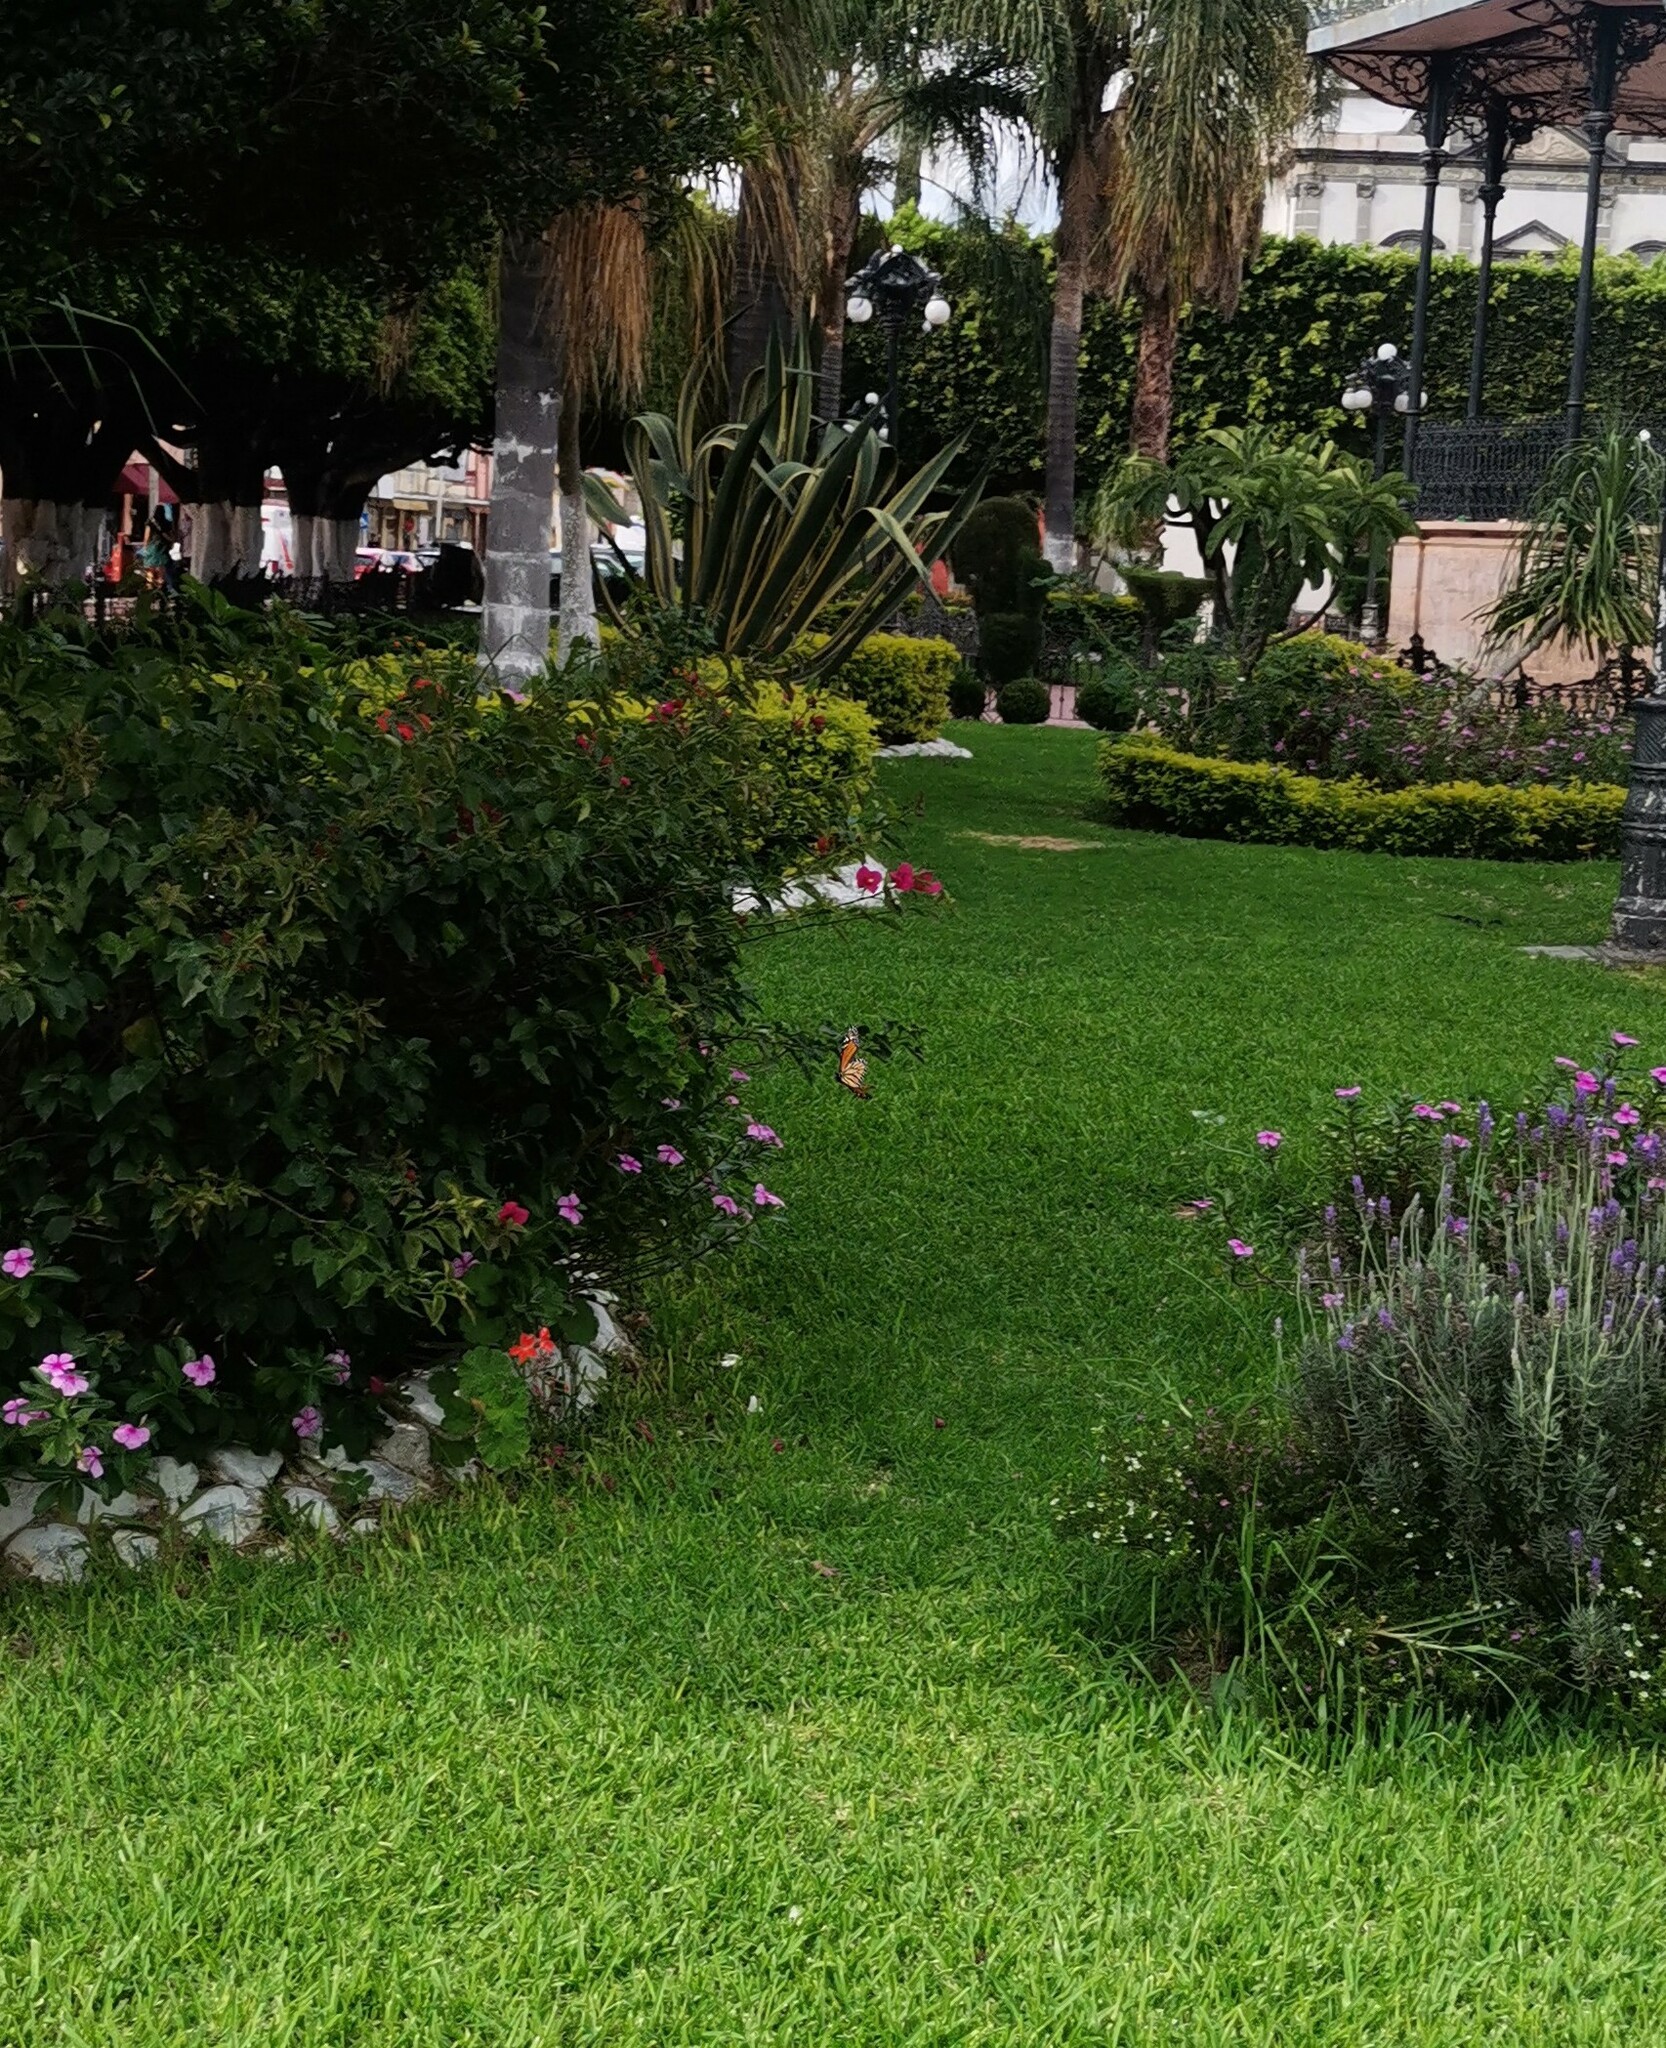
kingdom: Animalia
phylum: Arthropoda
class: Insecta
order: Lepidoptera
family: Nymphalidae
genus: Danaus
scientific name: Danaus plexippus
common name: Monarch
